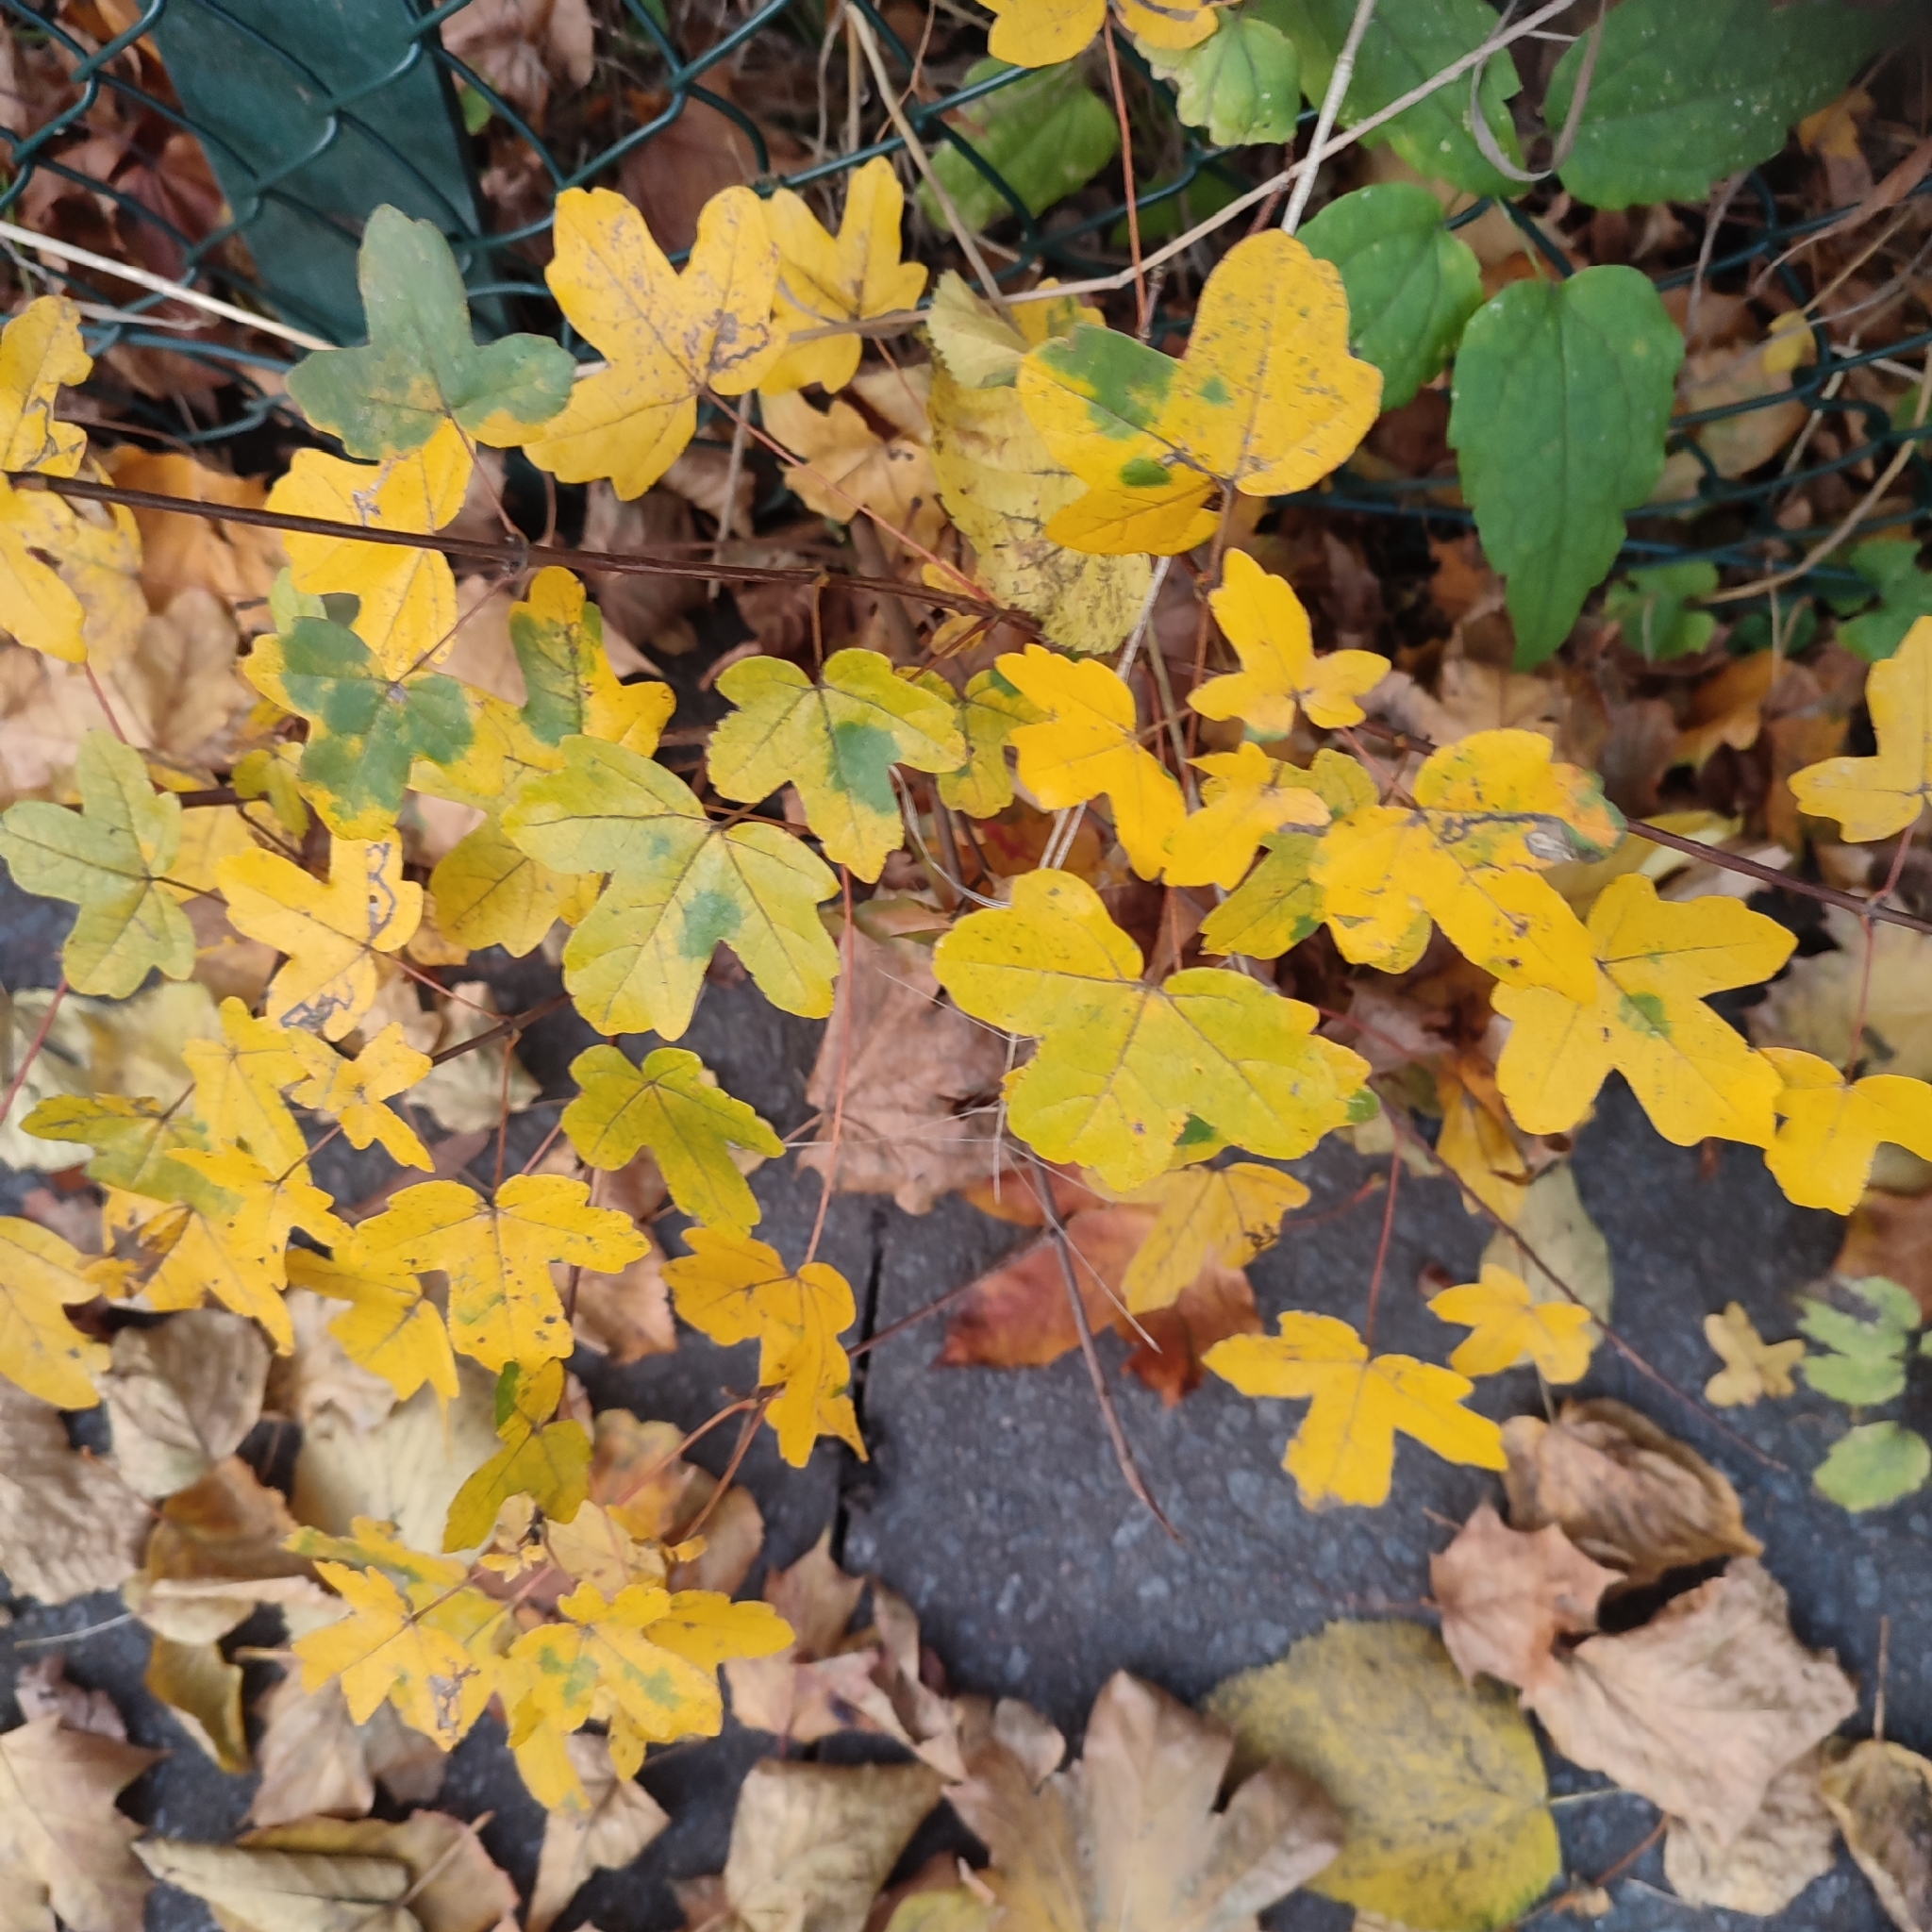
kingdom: Plantae
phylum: Tracheophyta
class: Magnoliopsida
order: Sapindales
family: Sapindaceae
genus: Acer
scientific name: Acer campestre
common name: Field maple
